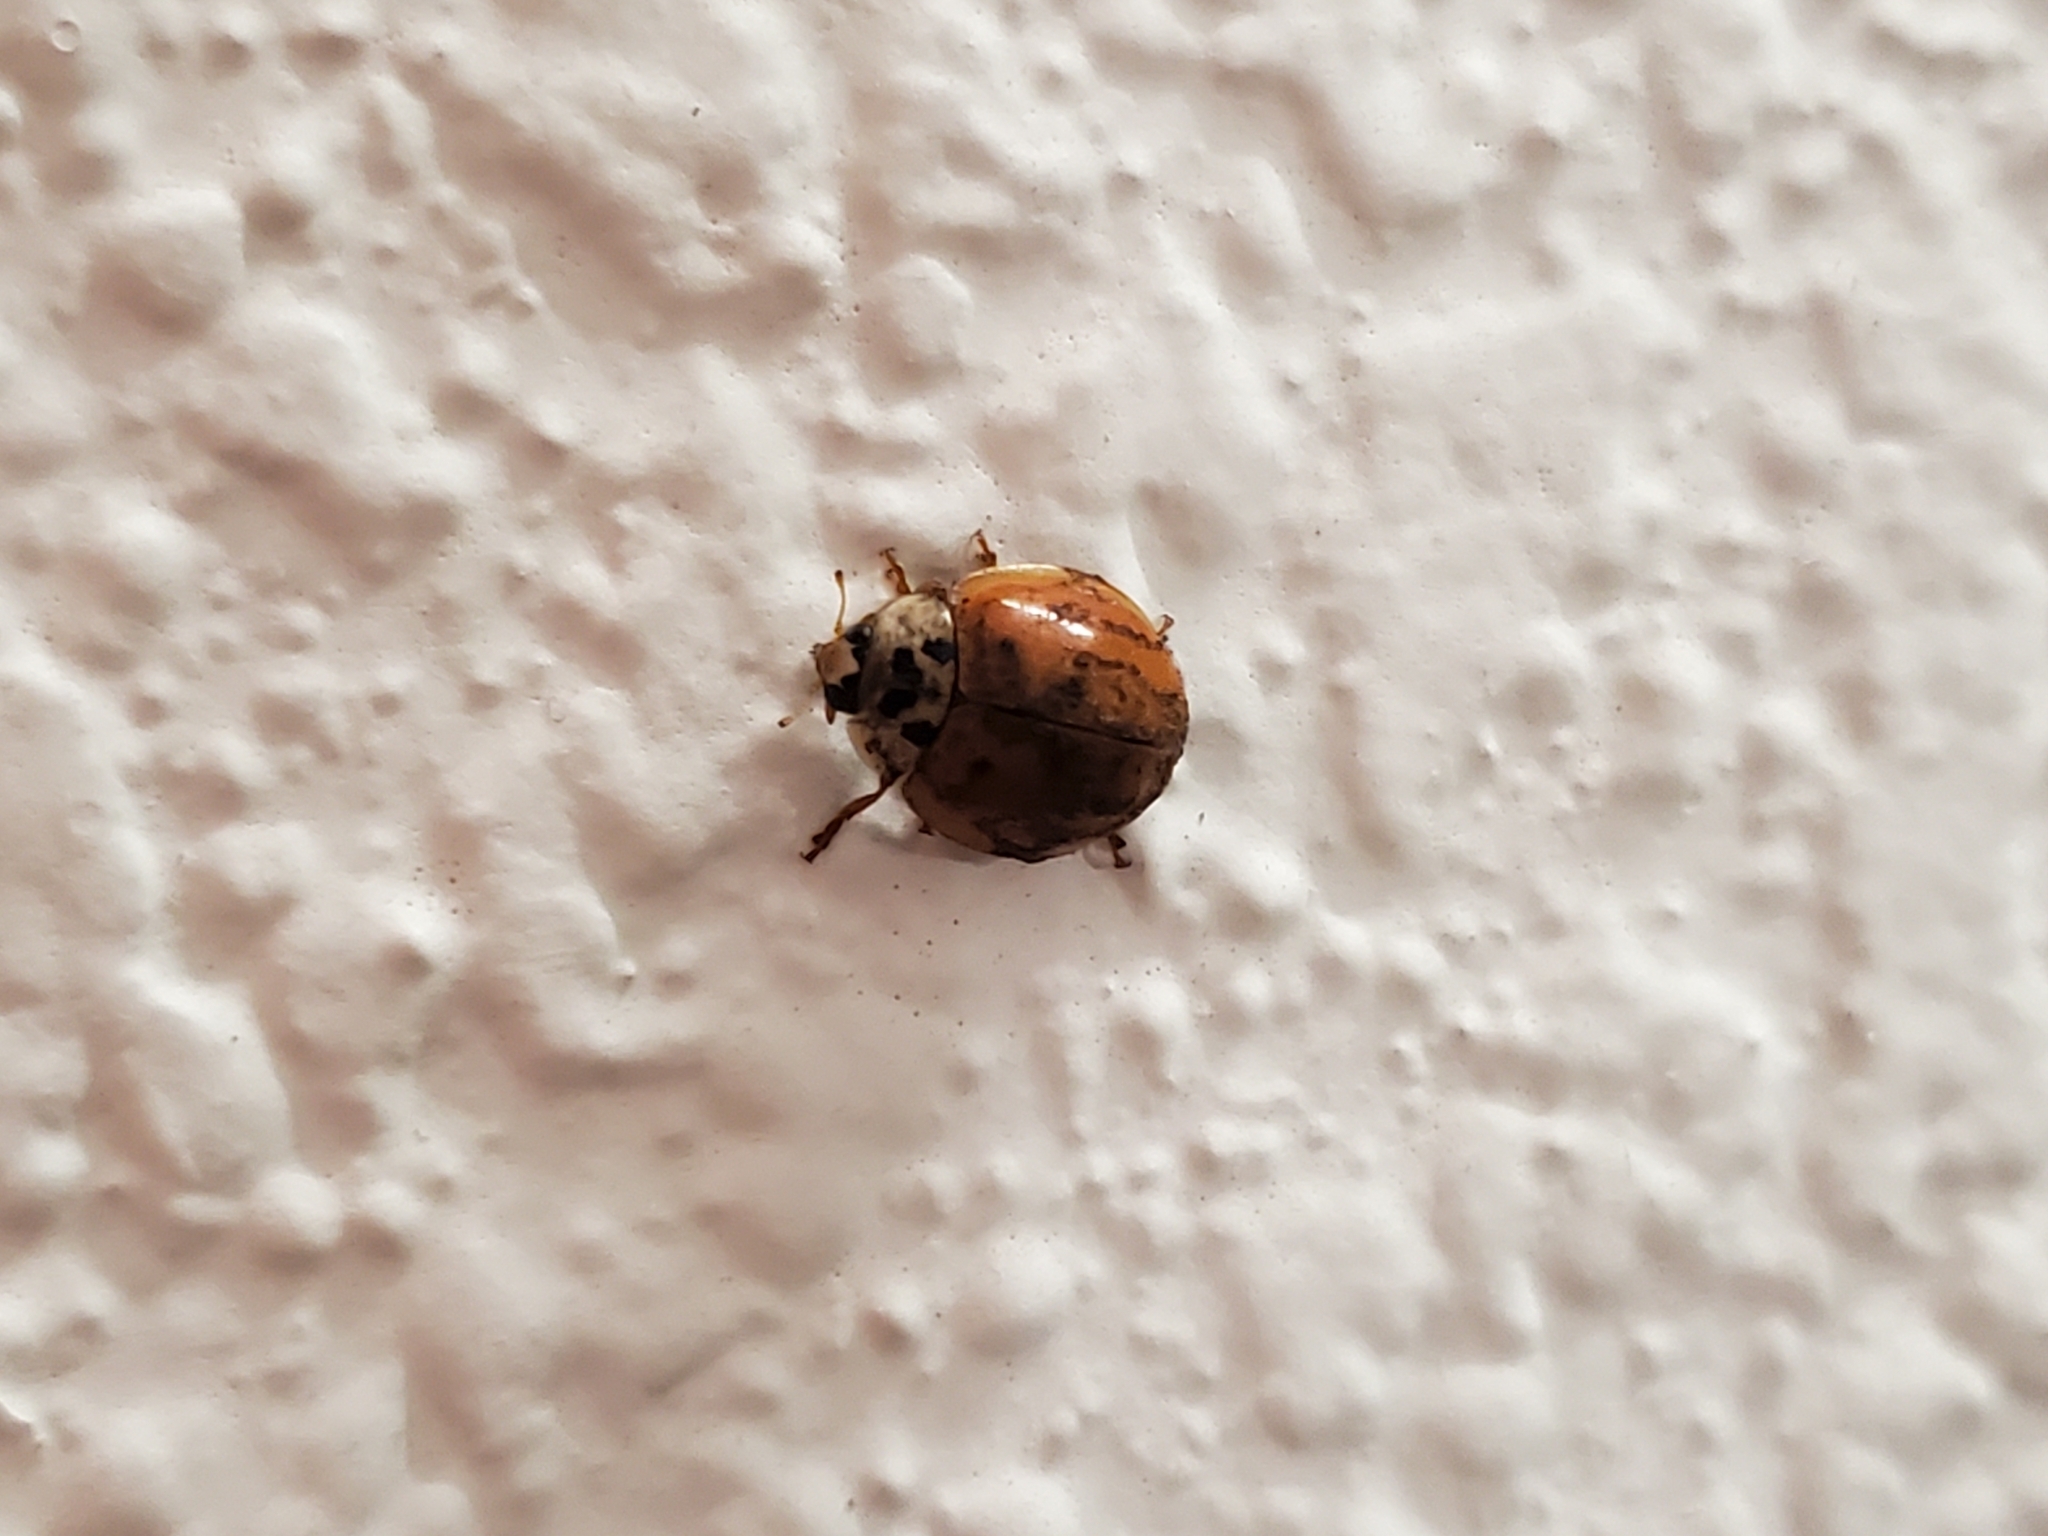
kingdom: Animalia
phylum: Arthropoda
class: Insecta
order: Coleoptera
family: Coccinellidae
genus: Harmonia
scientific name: Harmonia axyridis
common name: Harlequin ladybird
